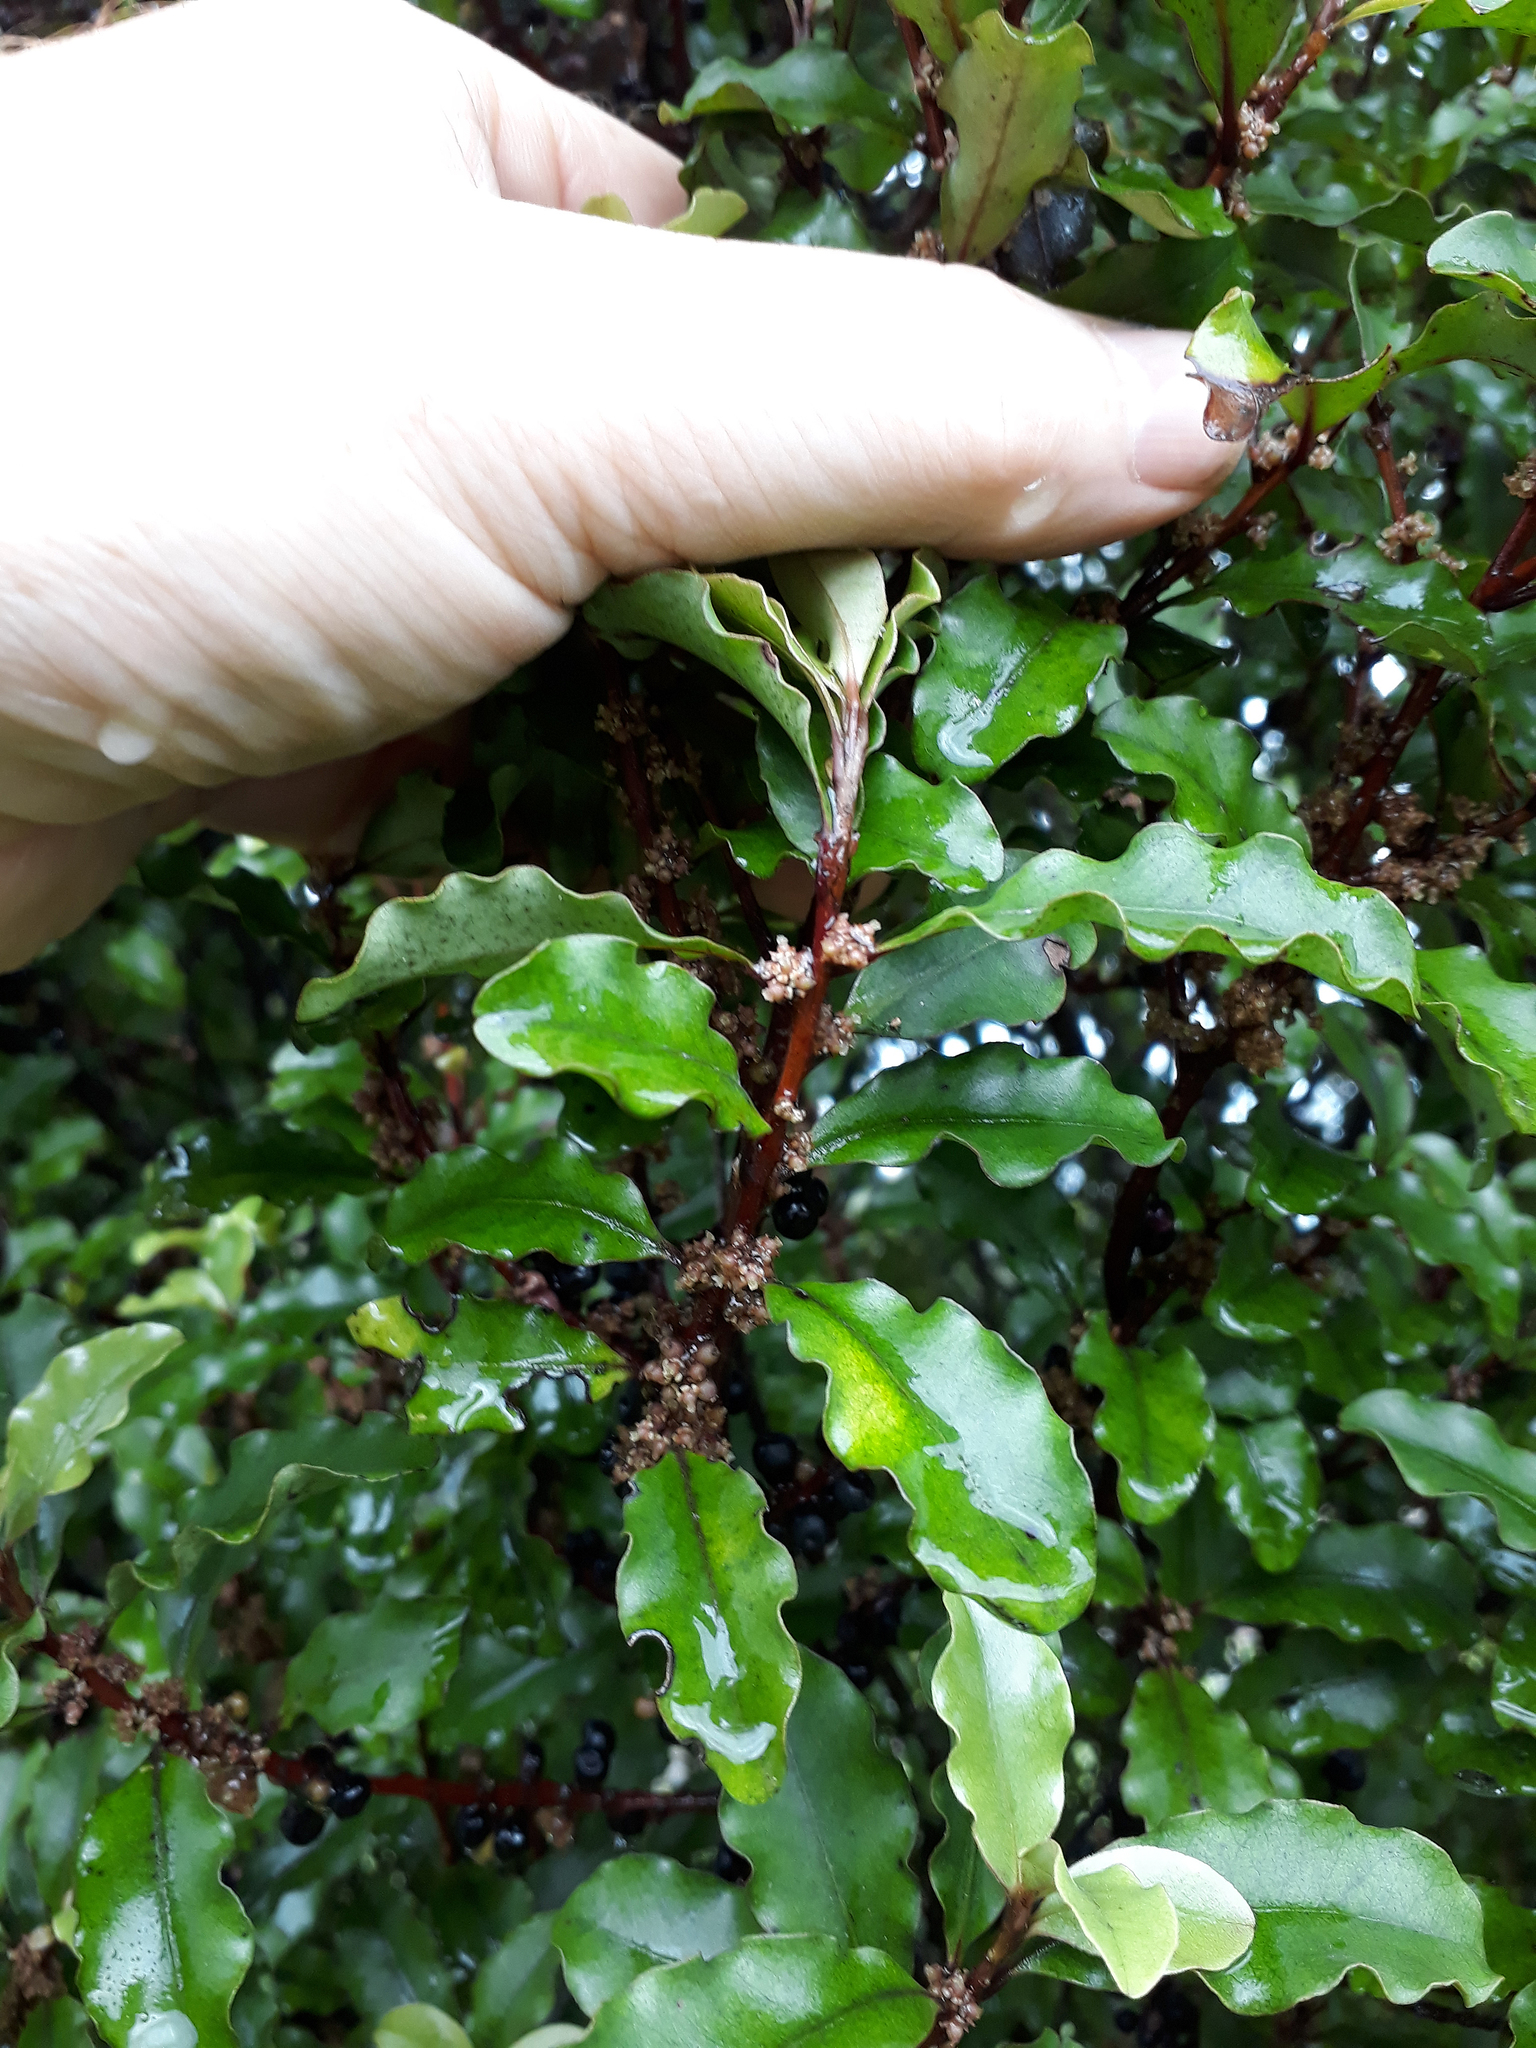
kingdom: Plantae
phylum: Tracheophyta
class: Magnoliopsida
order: Ericales
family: Primulaceae
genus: Myrsine
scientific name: Myrsine australis
